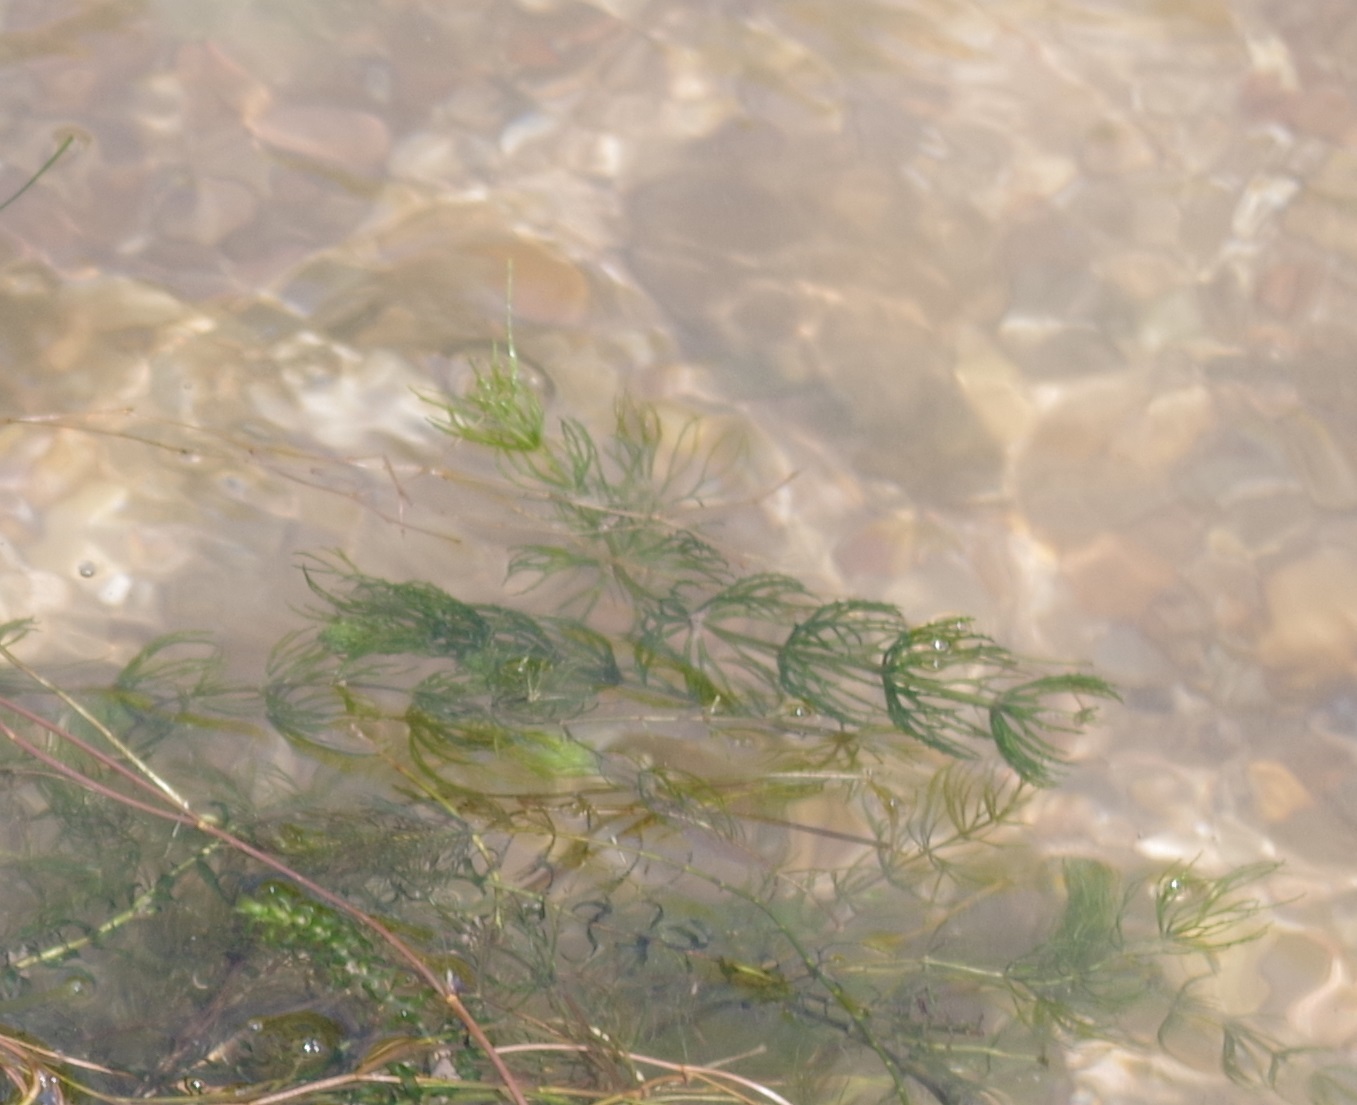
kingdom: Plantae
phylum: Tracheophyta
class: Magnoliopsida
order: Ceratophyllales
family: Ceratophyllaceae
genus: Ceratophyllum
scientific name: Ceratophyllum demersum
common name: Rigid hornwort
